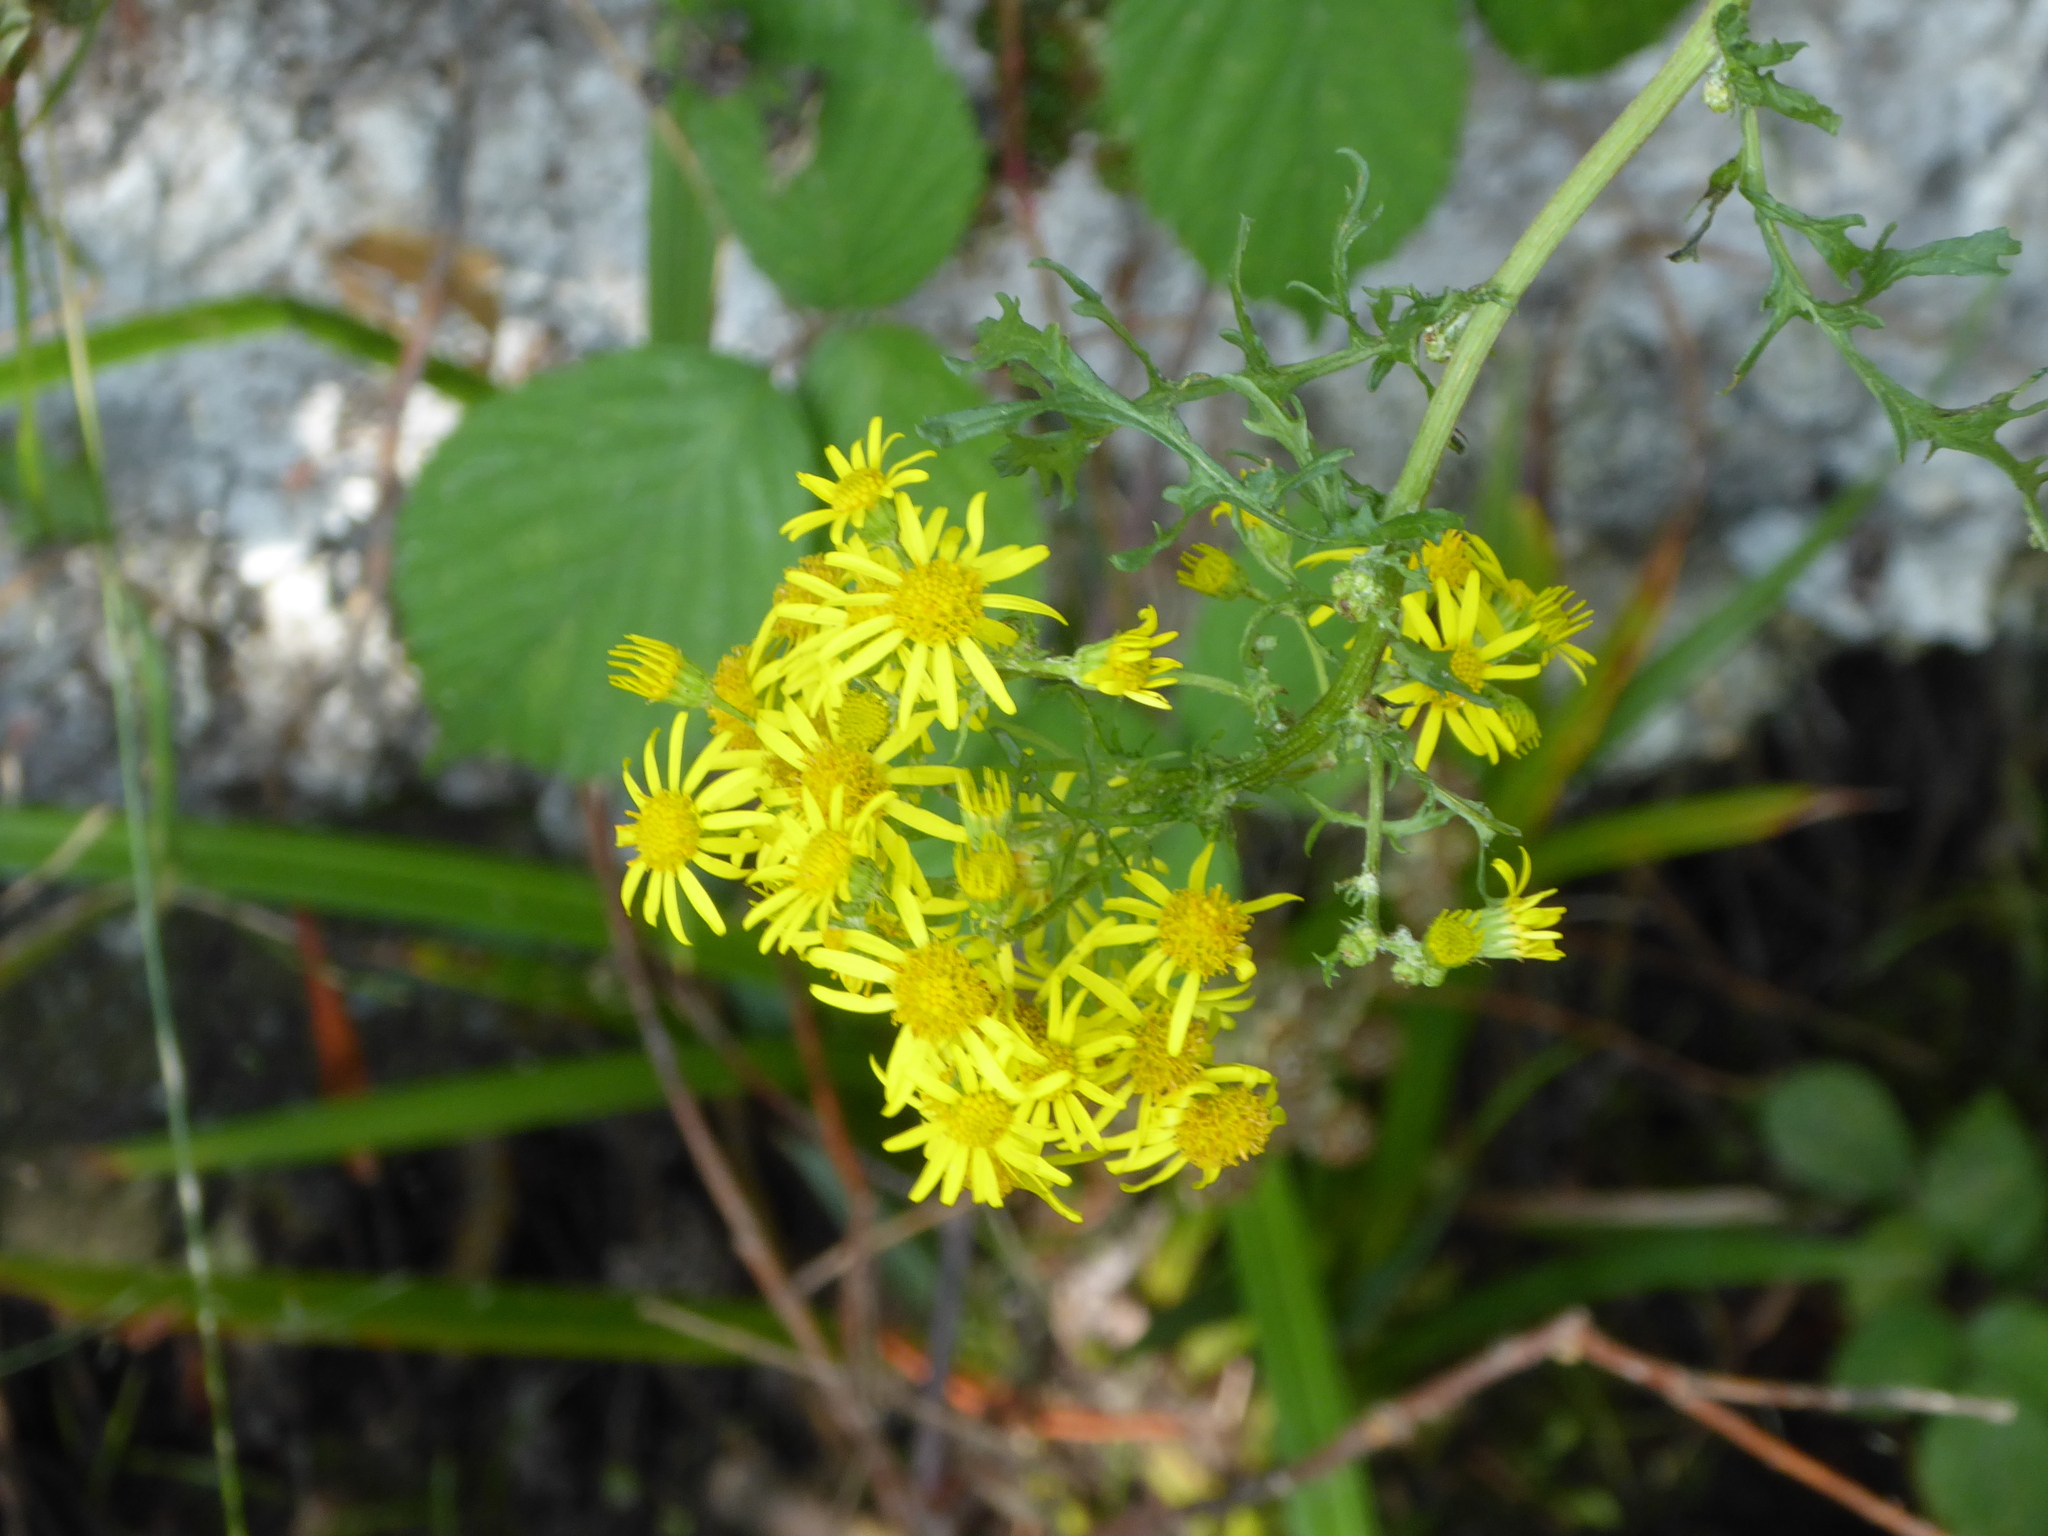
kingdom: Plantae
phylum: Tracheophyta
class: Magnoliopsida
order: Asterales
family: Asteraceae
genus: Jacobaea
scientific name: Jacobaea vulgaris
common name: Stinking willie
